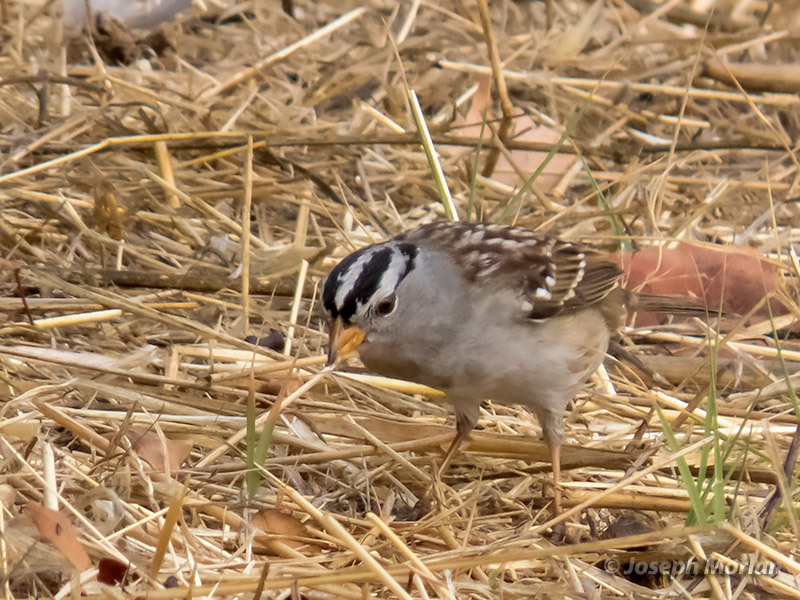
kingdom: Animalia
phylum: Chordata
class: Aves
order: Passeriformes
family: Passerellidae
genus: Zonotrichia
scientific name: Zonotrichia leucophrys
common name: White-crowned sparrow
